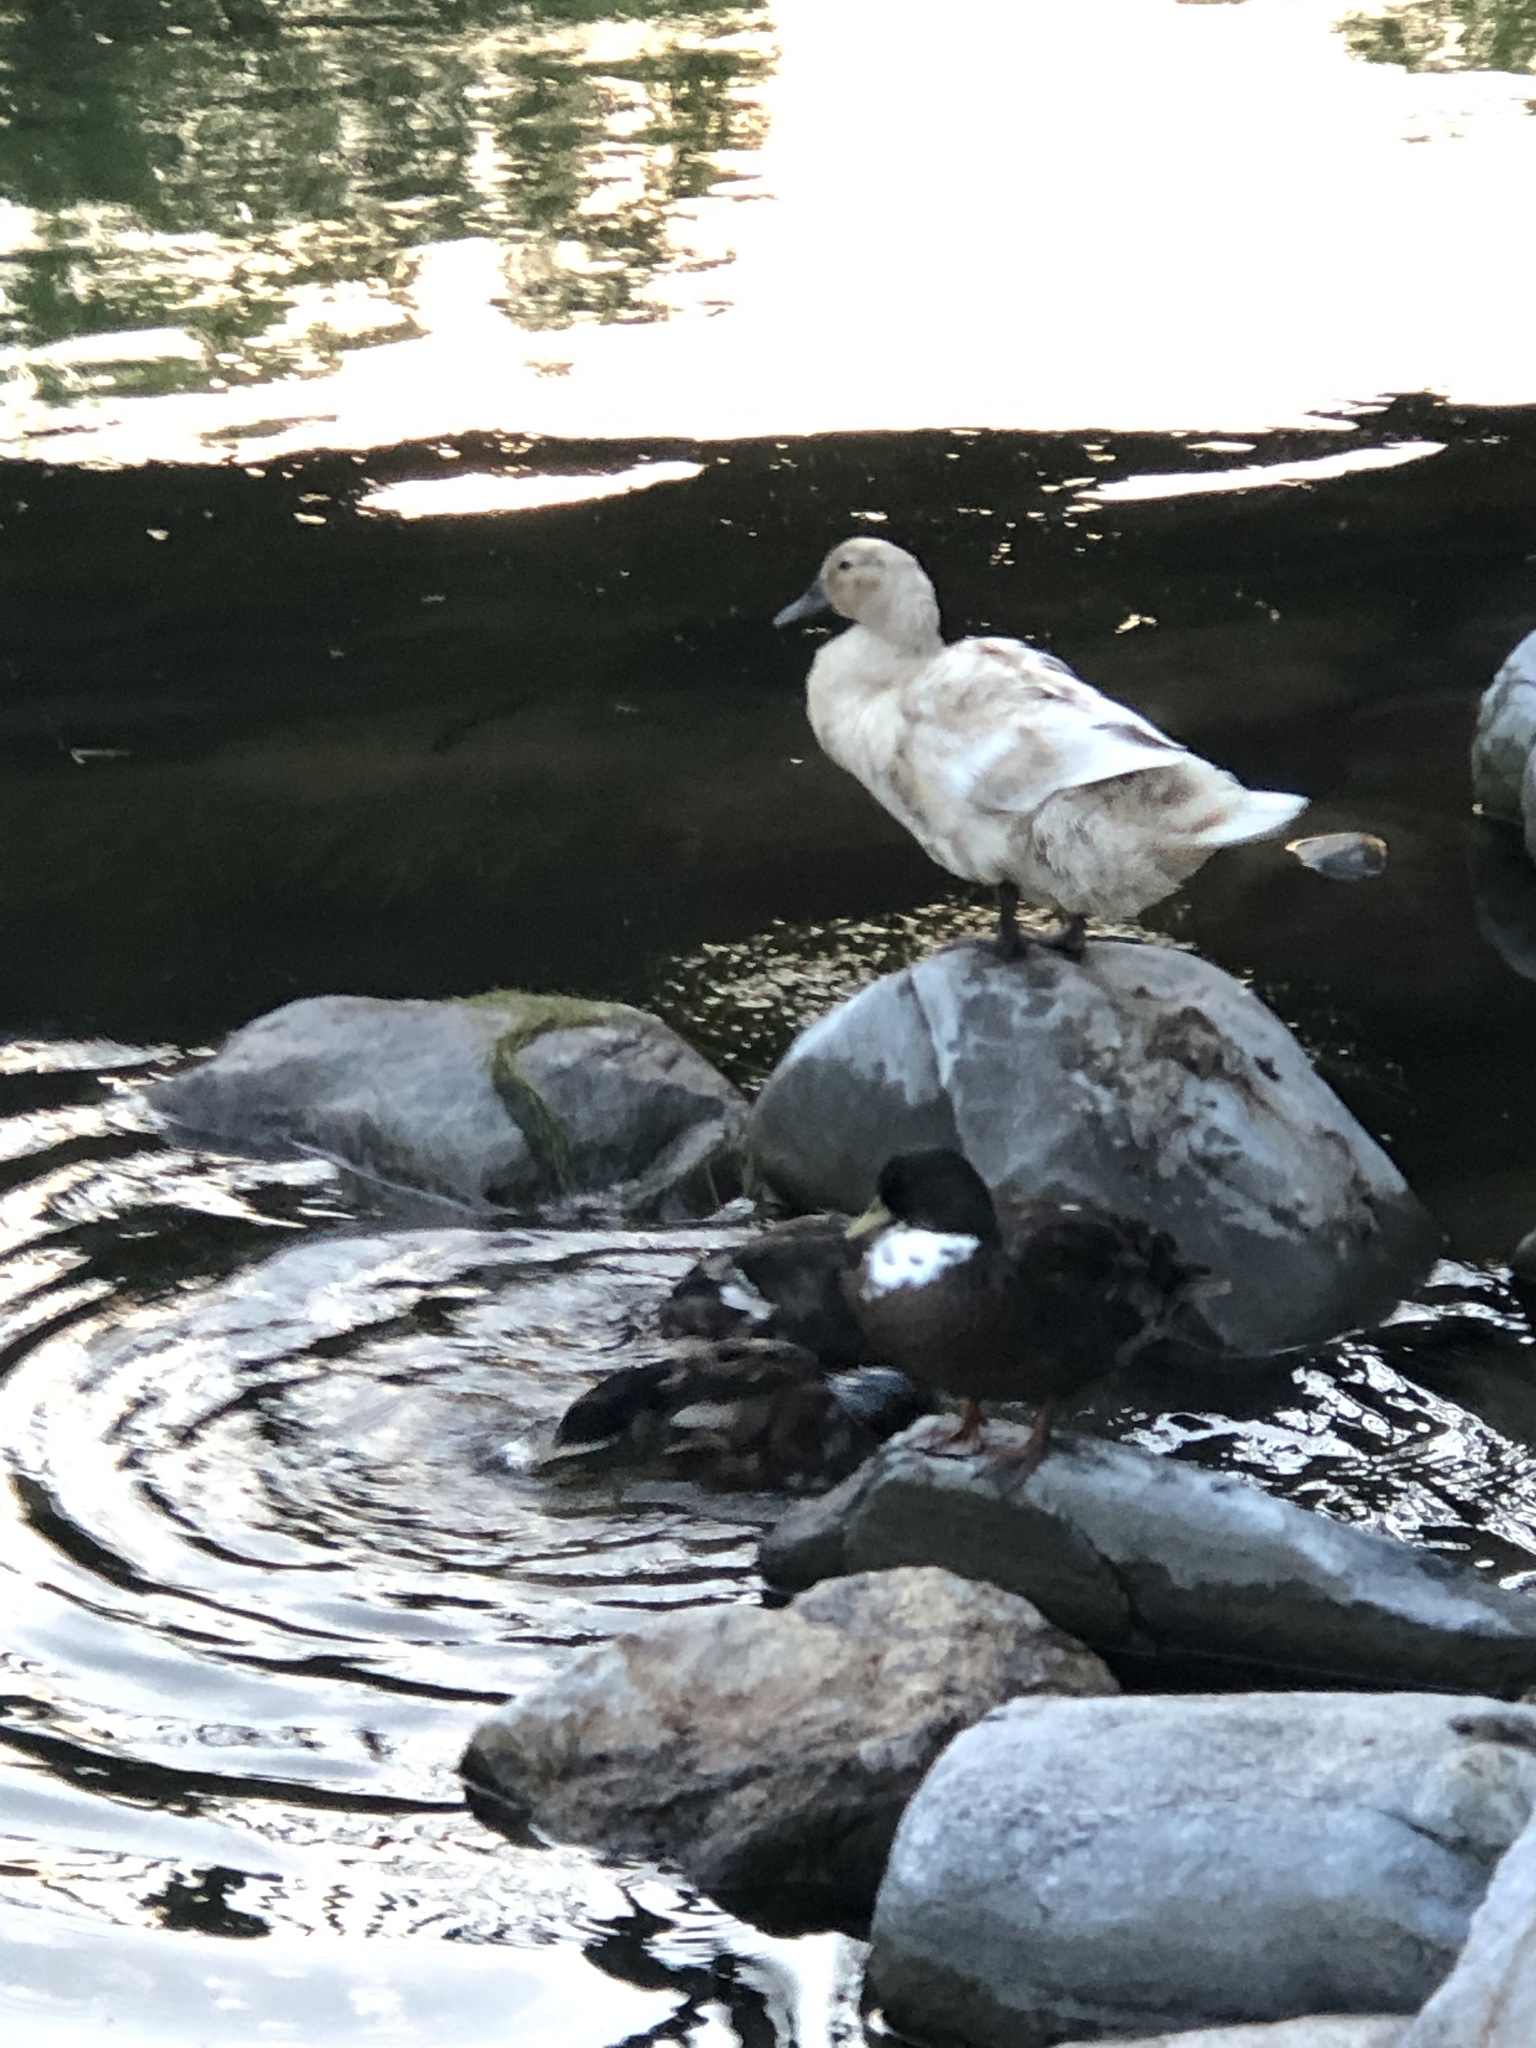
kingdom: Animalia
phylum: Chordata
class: Aves
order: Anseriformes
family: Anatidae
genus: Anas
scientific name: Anas platyrhynchos
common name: Mallard
